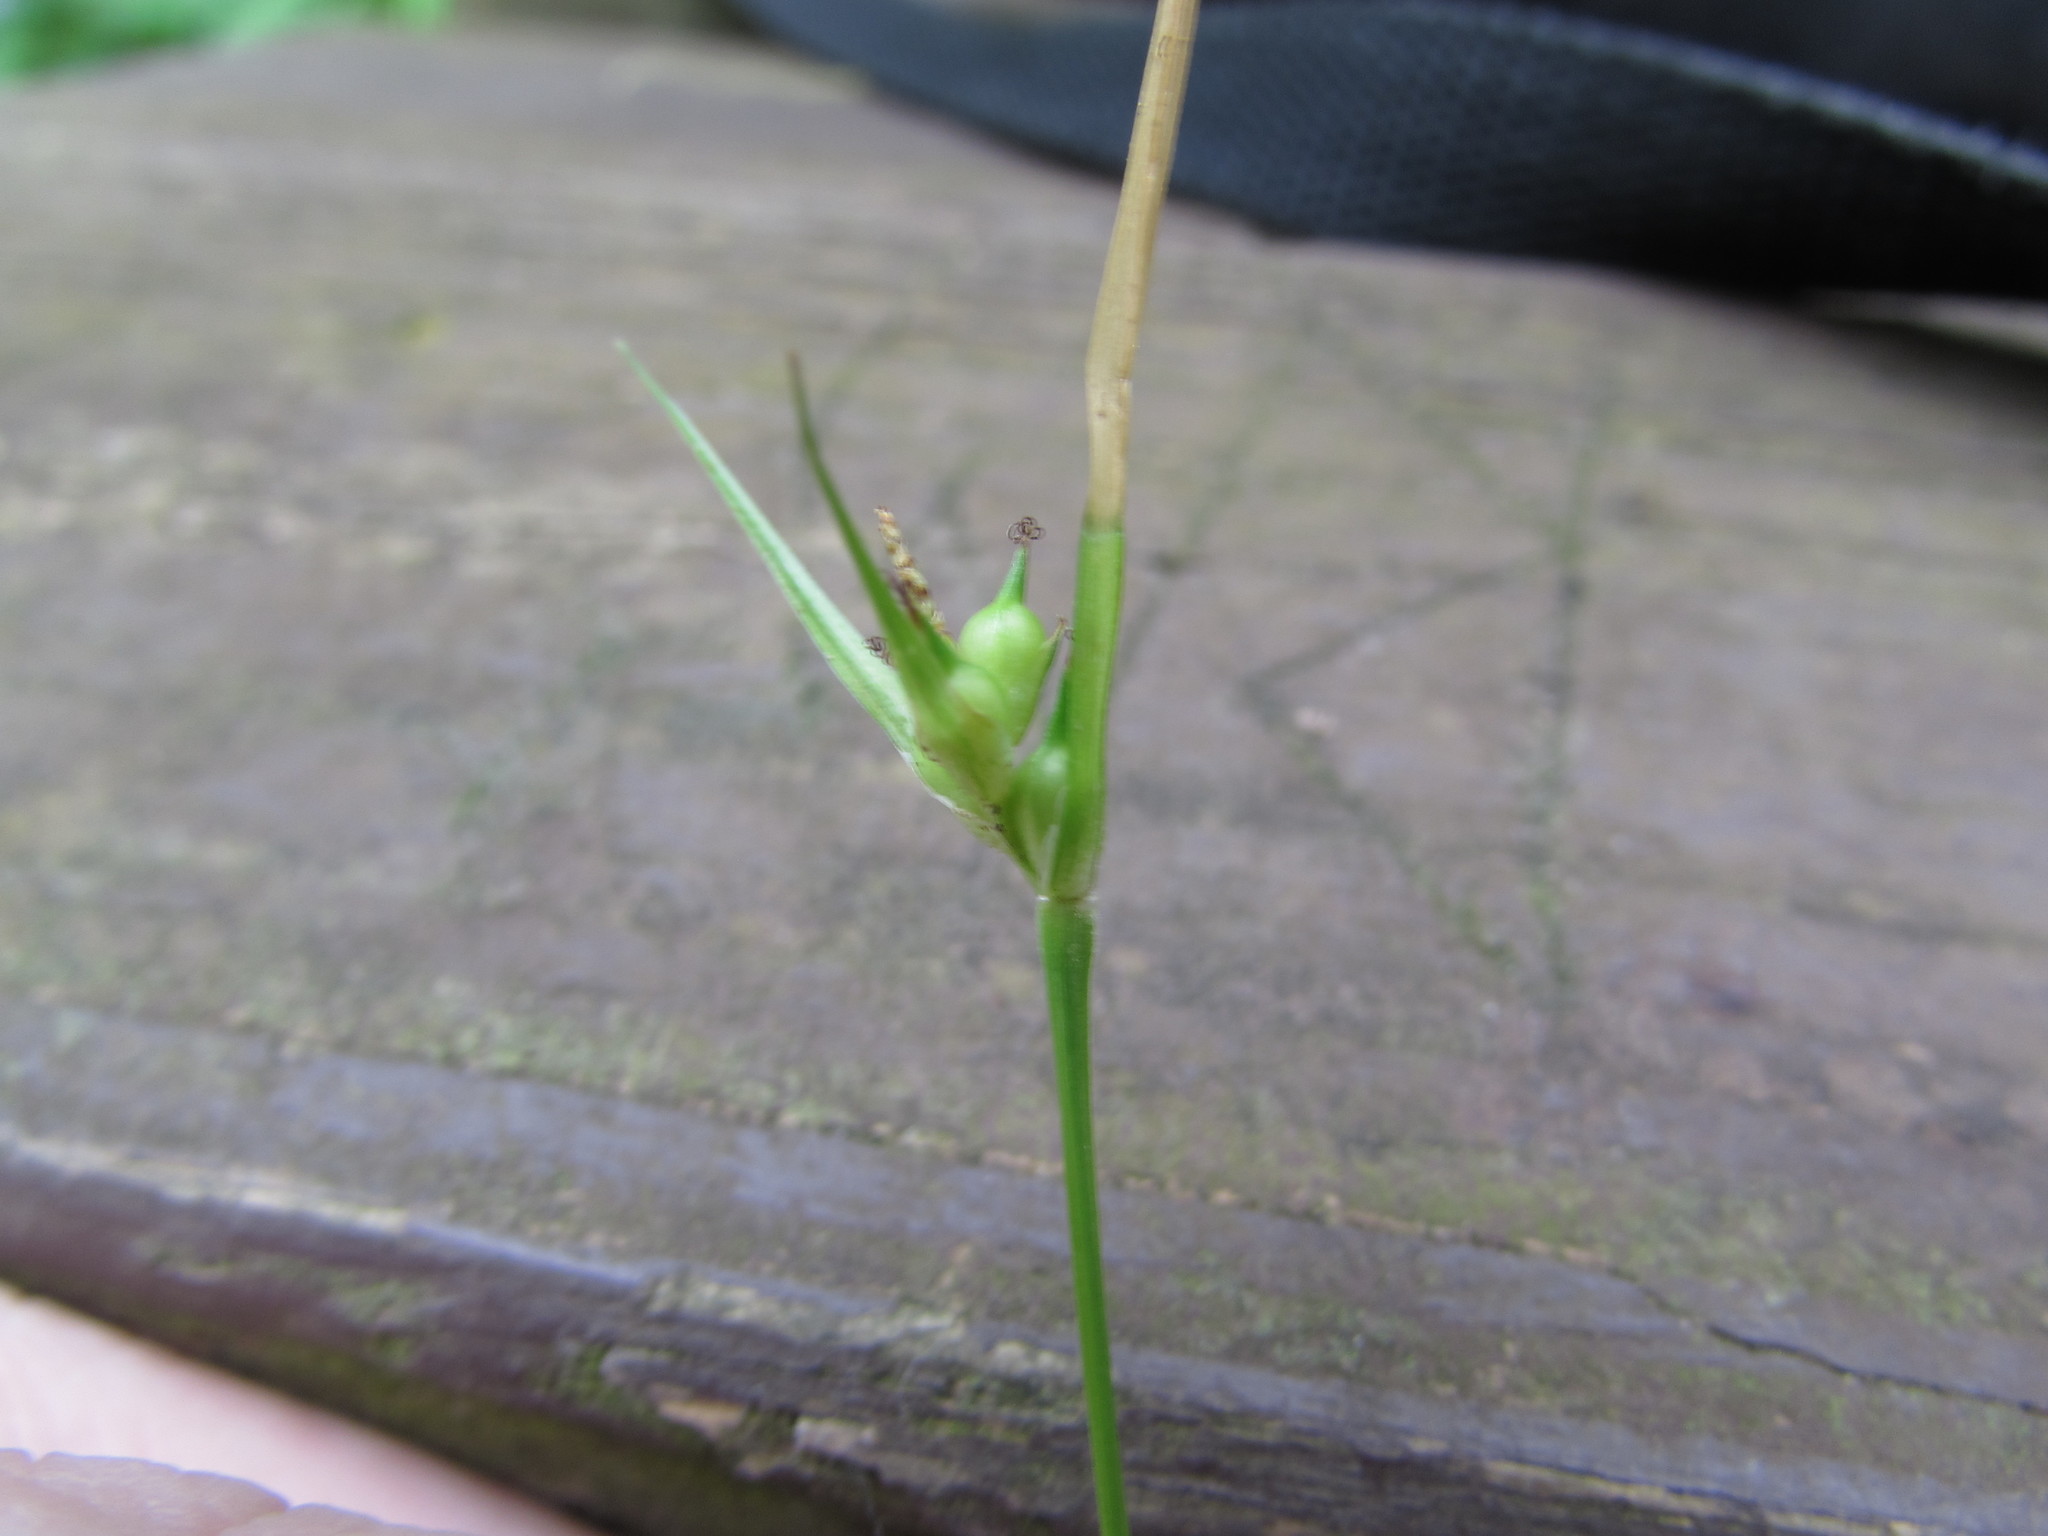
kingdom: Plantae
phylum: Tracheophyta
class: Liliopsida
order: Poales
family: Cyperaceae
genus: Carex
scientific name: Carex jamesii
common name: Grass sedge
